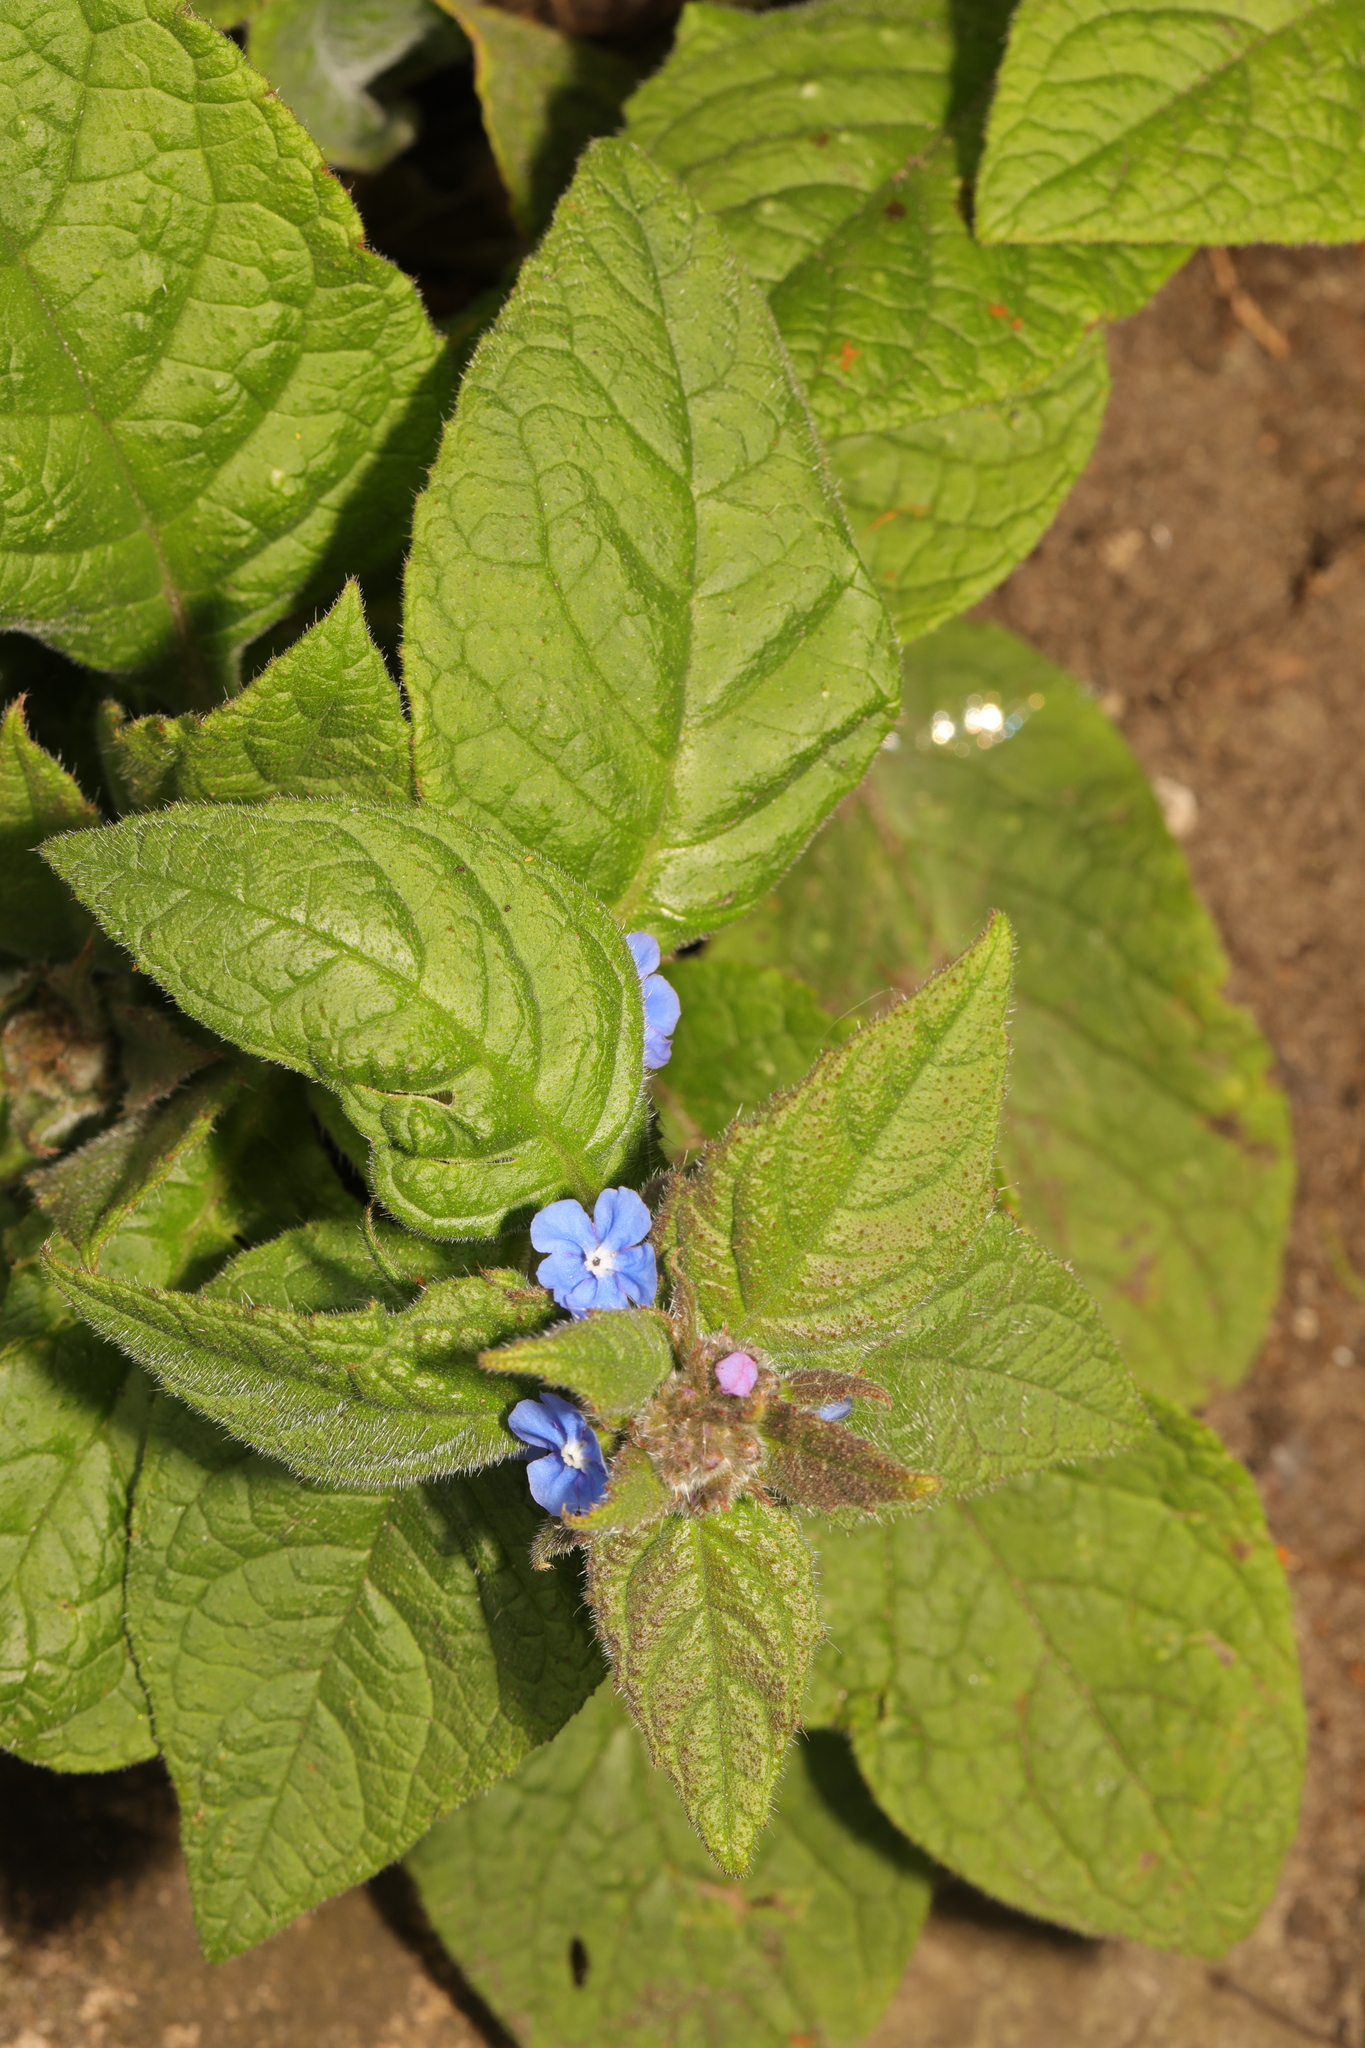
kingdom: Plantae
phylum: Tracheophyta
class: Magnoliopsida
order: Boraginales
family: Boraginaceae
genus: Pentaglottis
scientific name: Pentaglottis sempervirens
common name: Green alkanet
